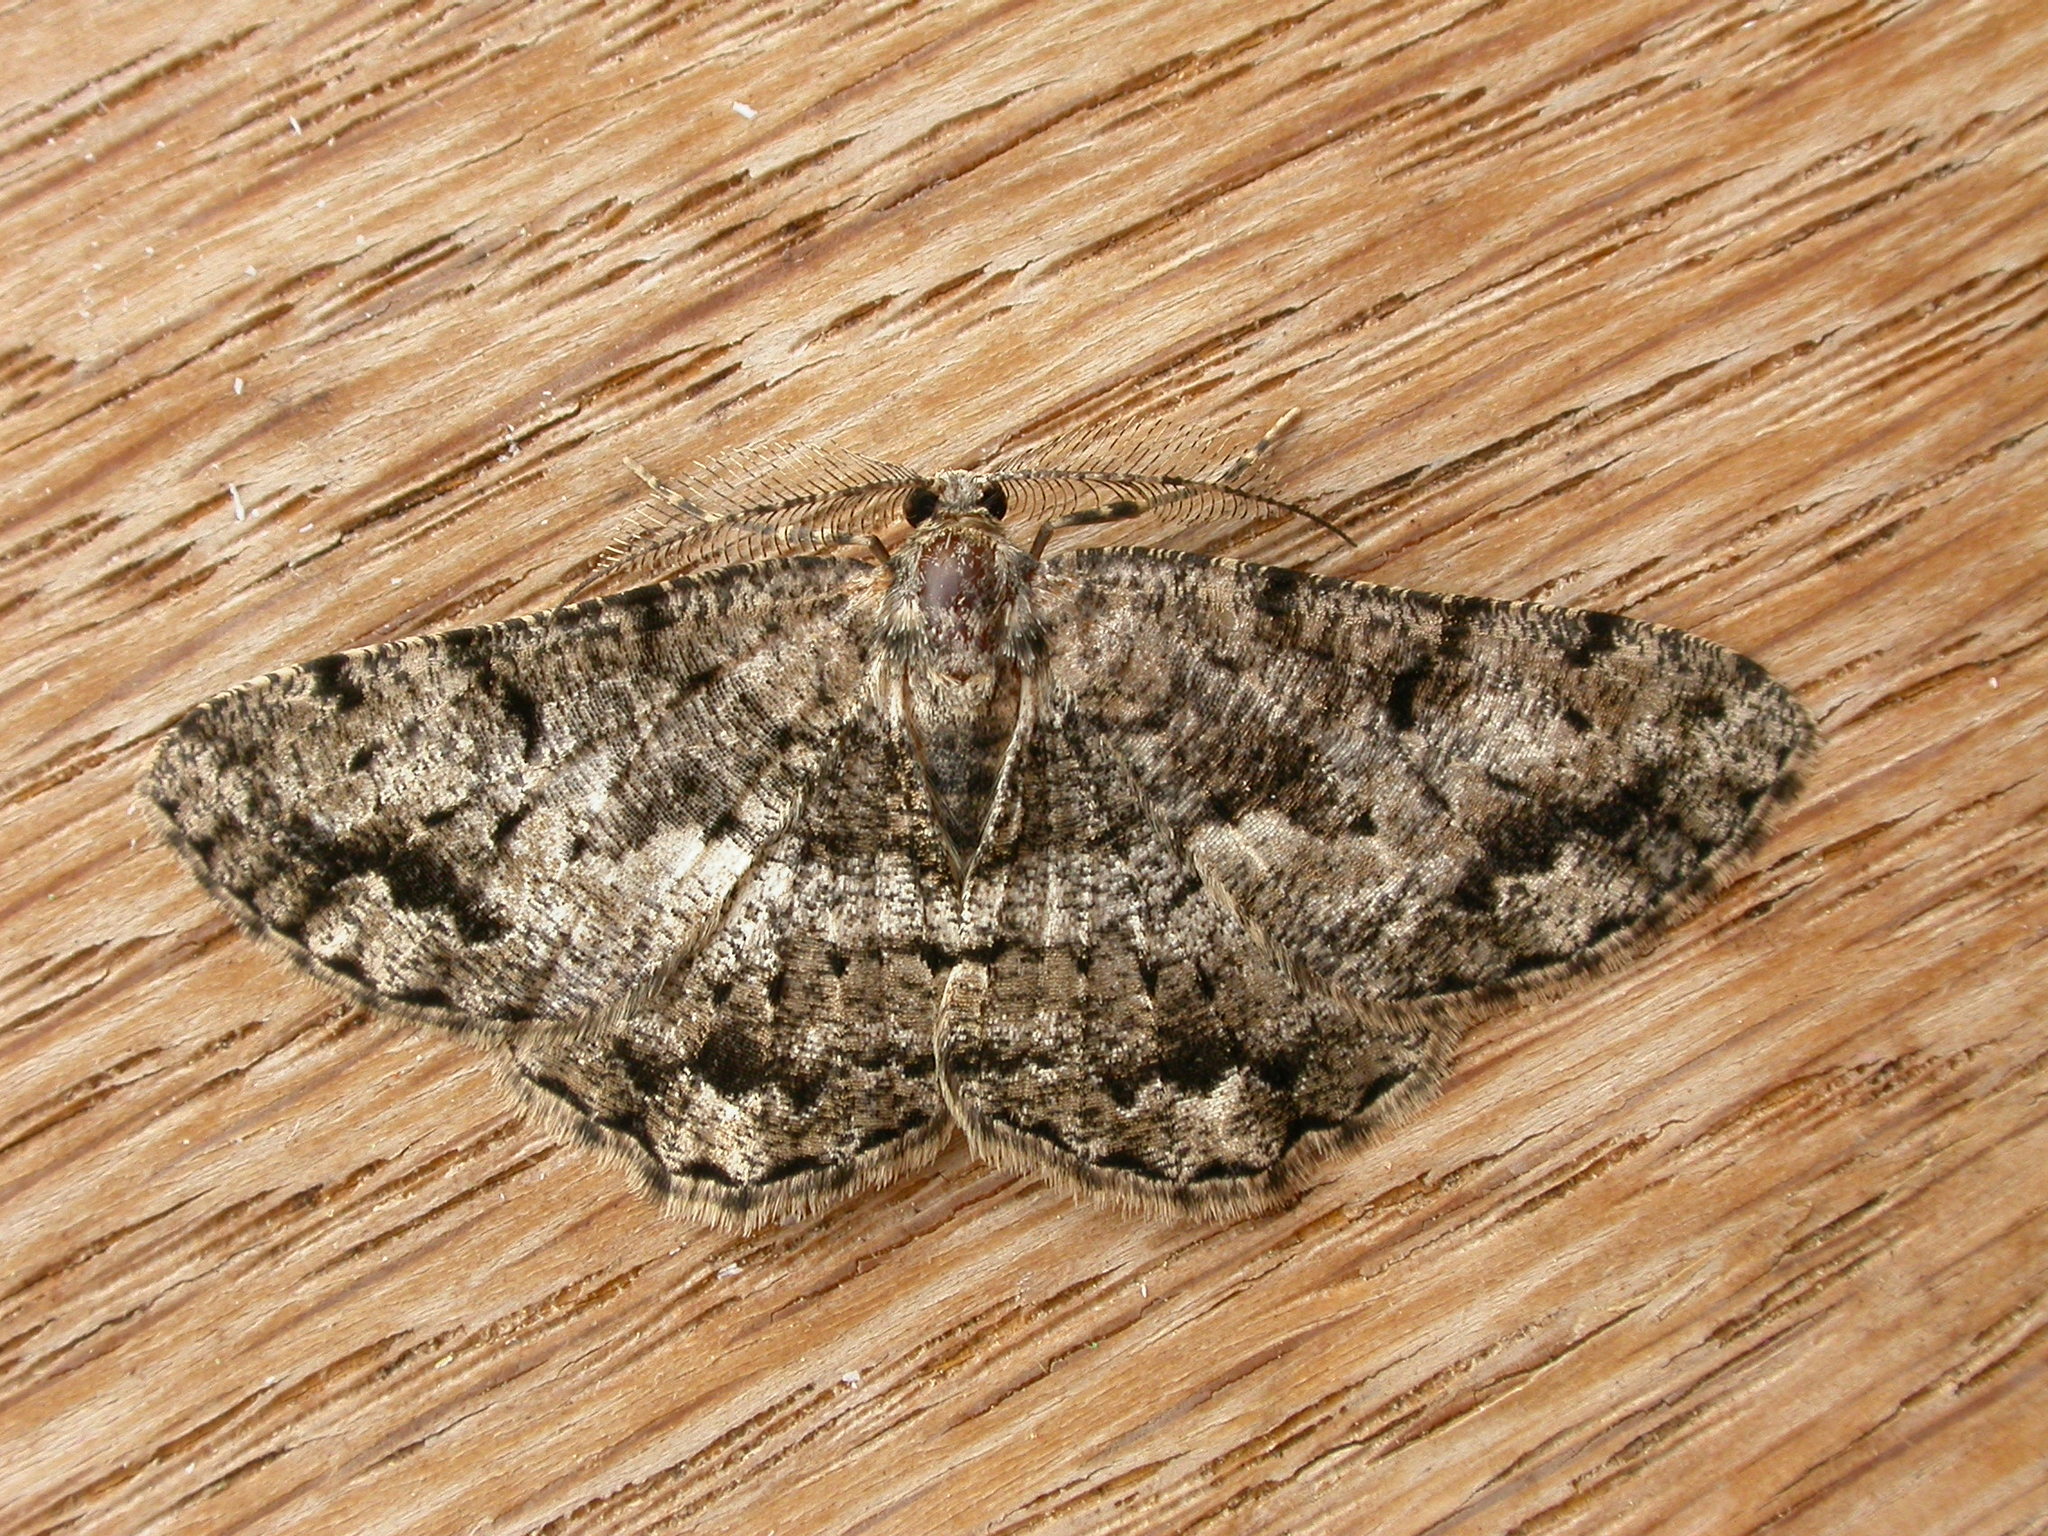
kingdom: Animalia
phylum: Arthropoda
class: Insecta
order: Lepidoptera
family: Geometridae
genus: Hypomecis
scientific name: Hypomecis externaria
